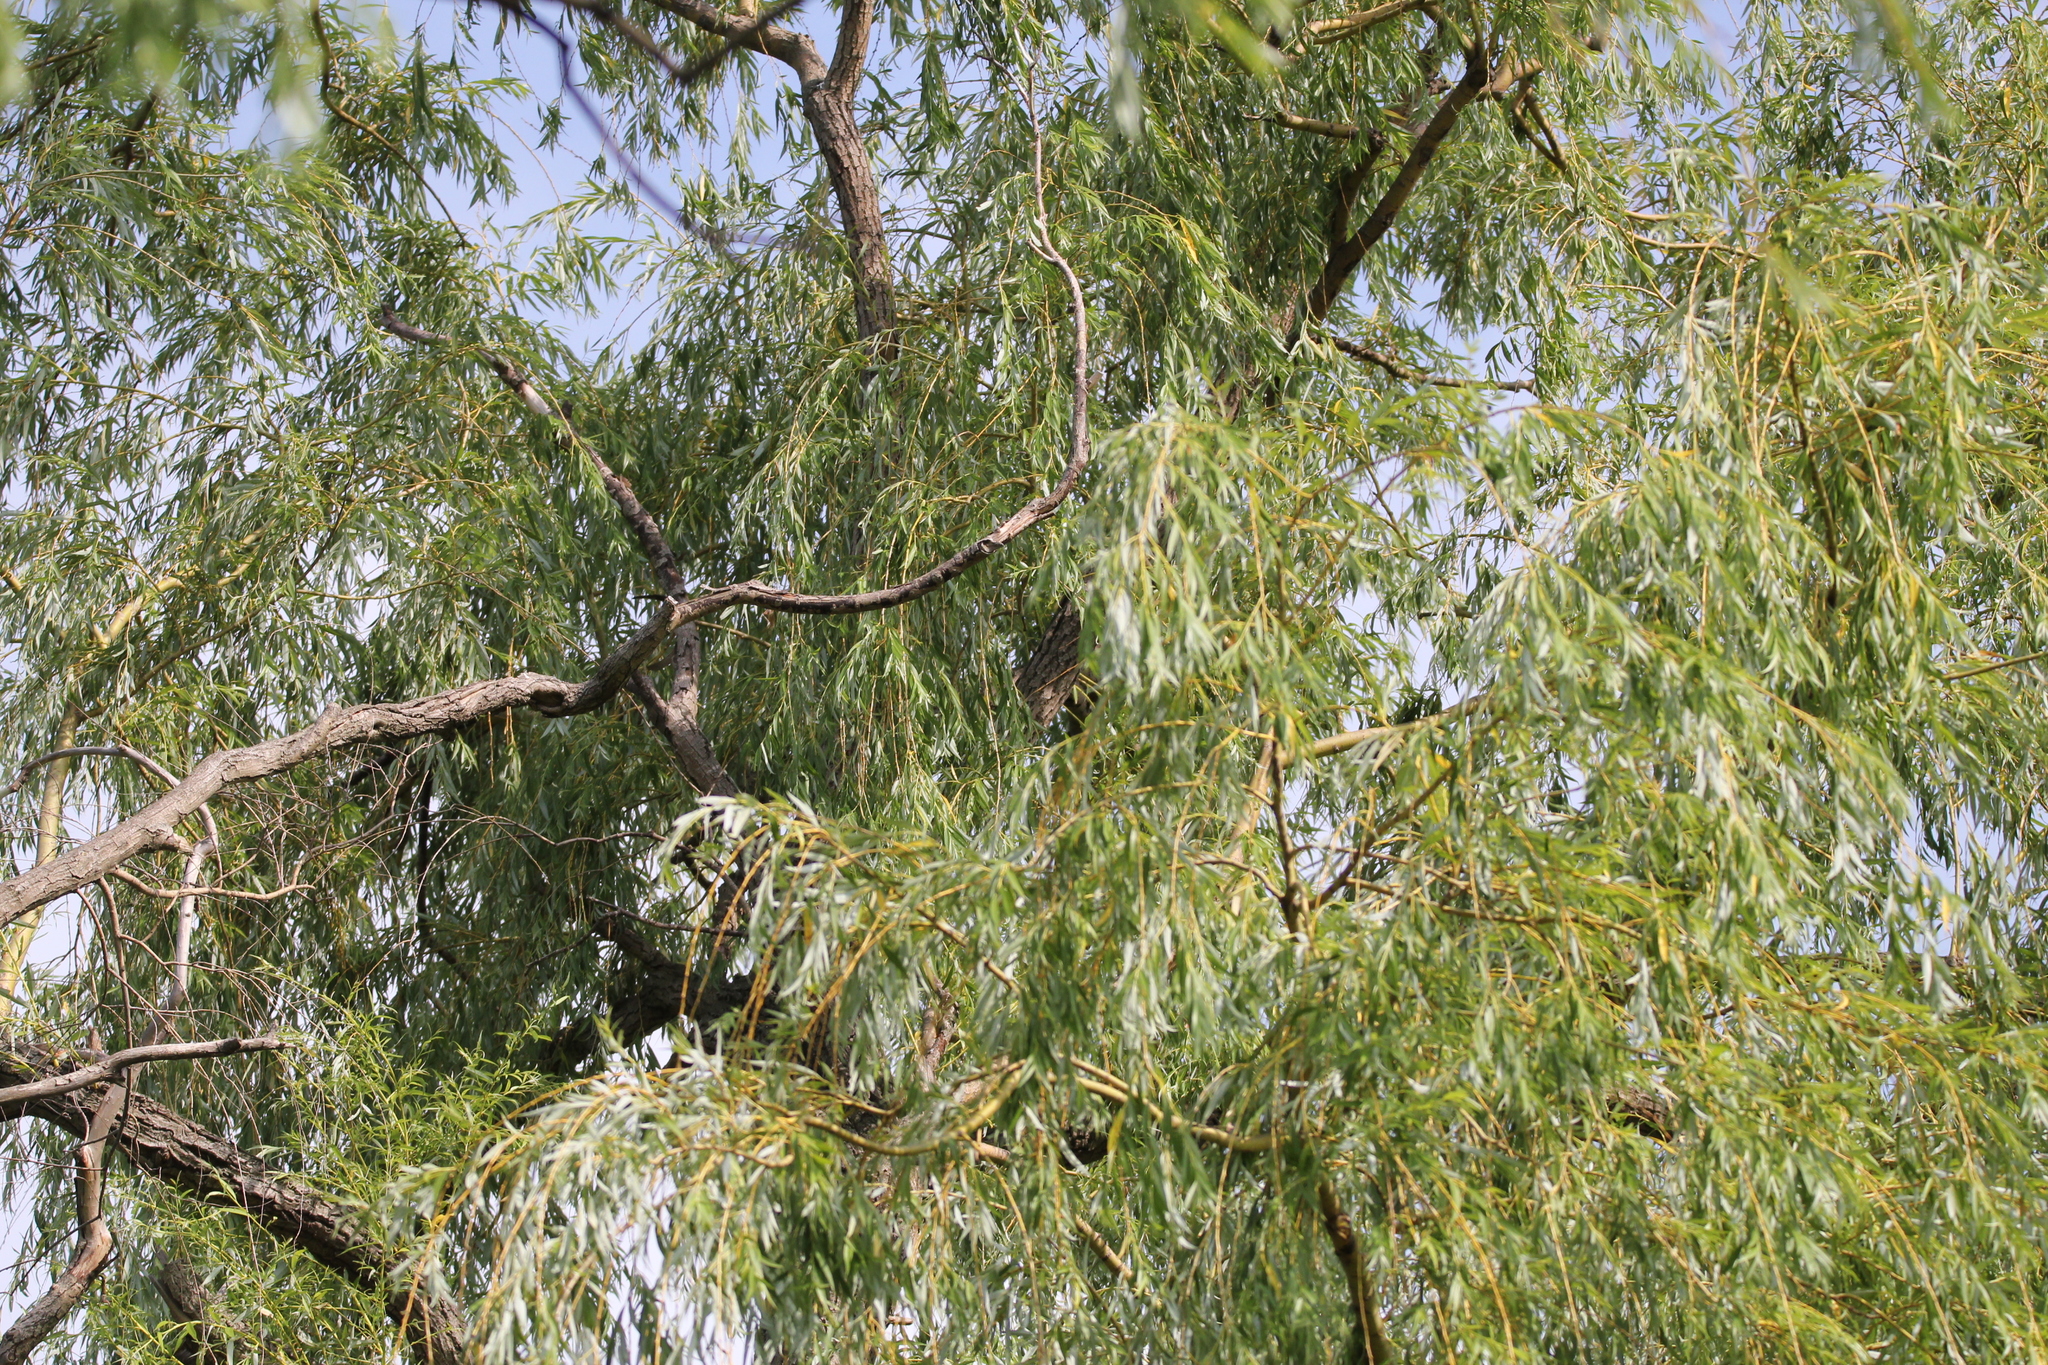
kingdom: Plantae
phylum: Tracheophyta
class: Magnoliopsida
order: Malpighiales
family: Salicaceae
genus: Salix
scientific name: Salix alba
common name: White willow
